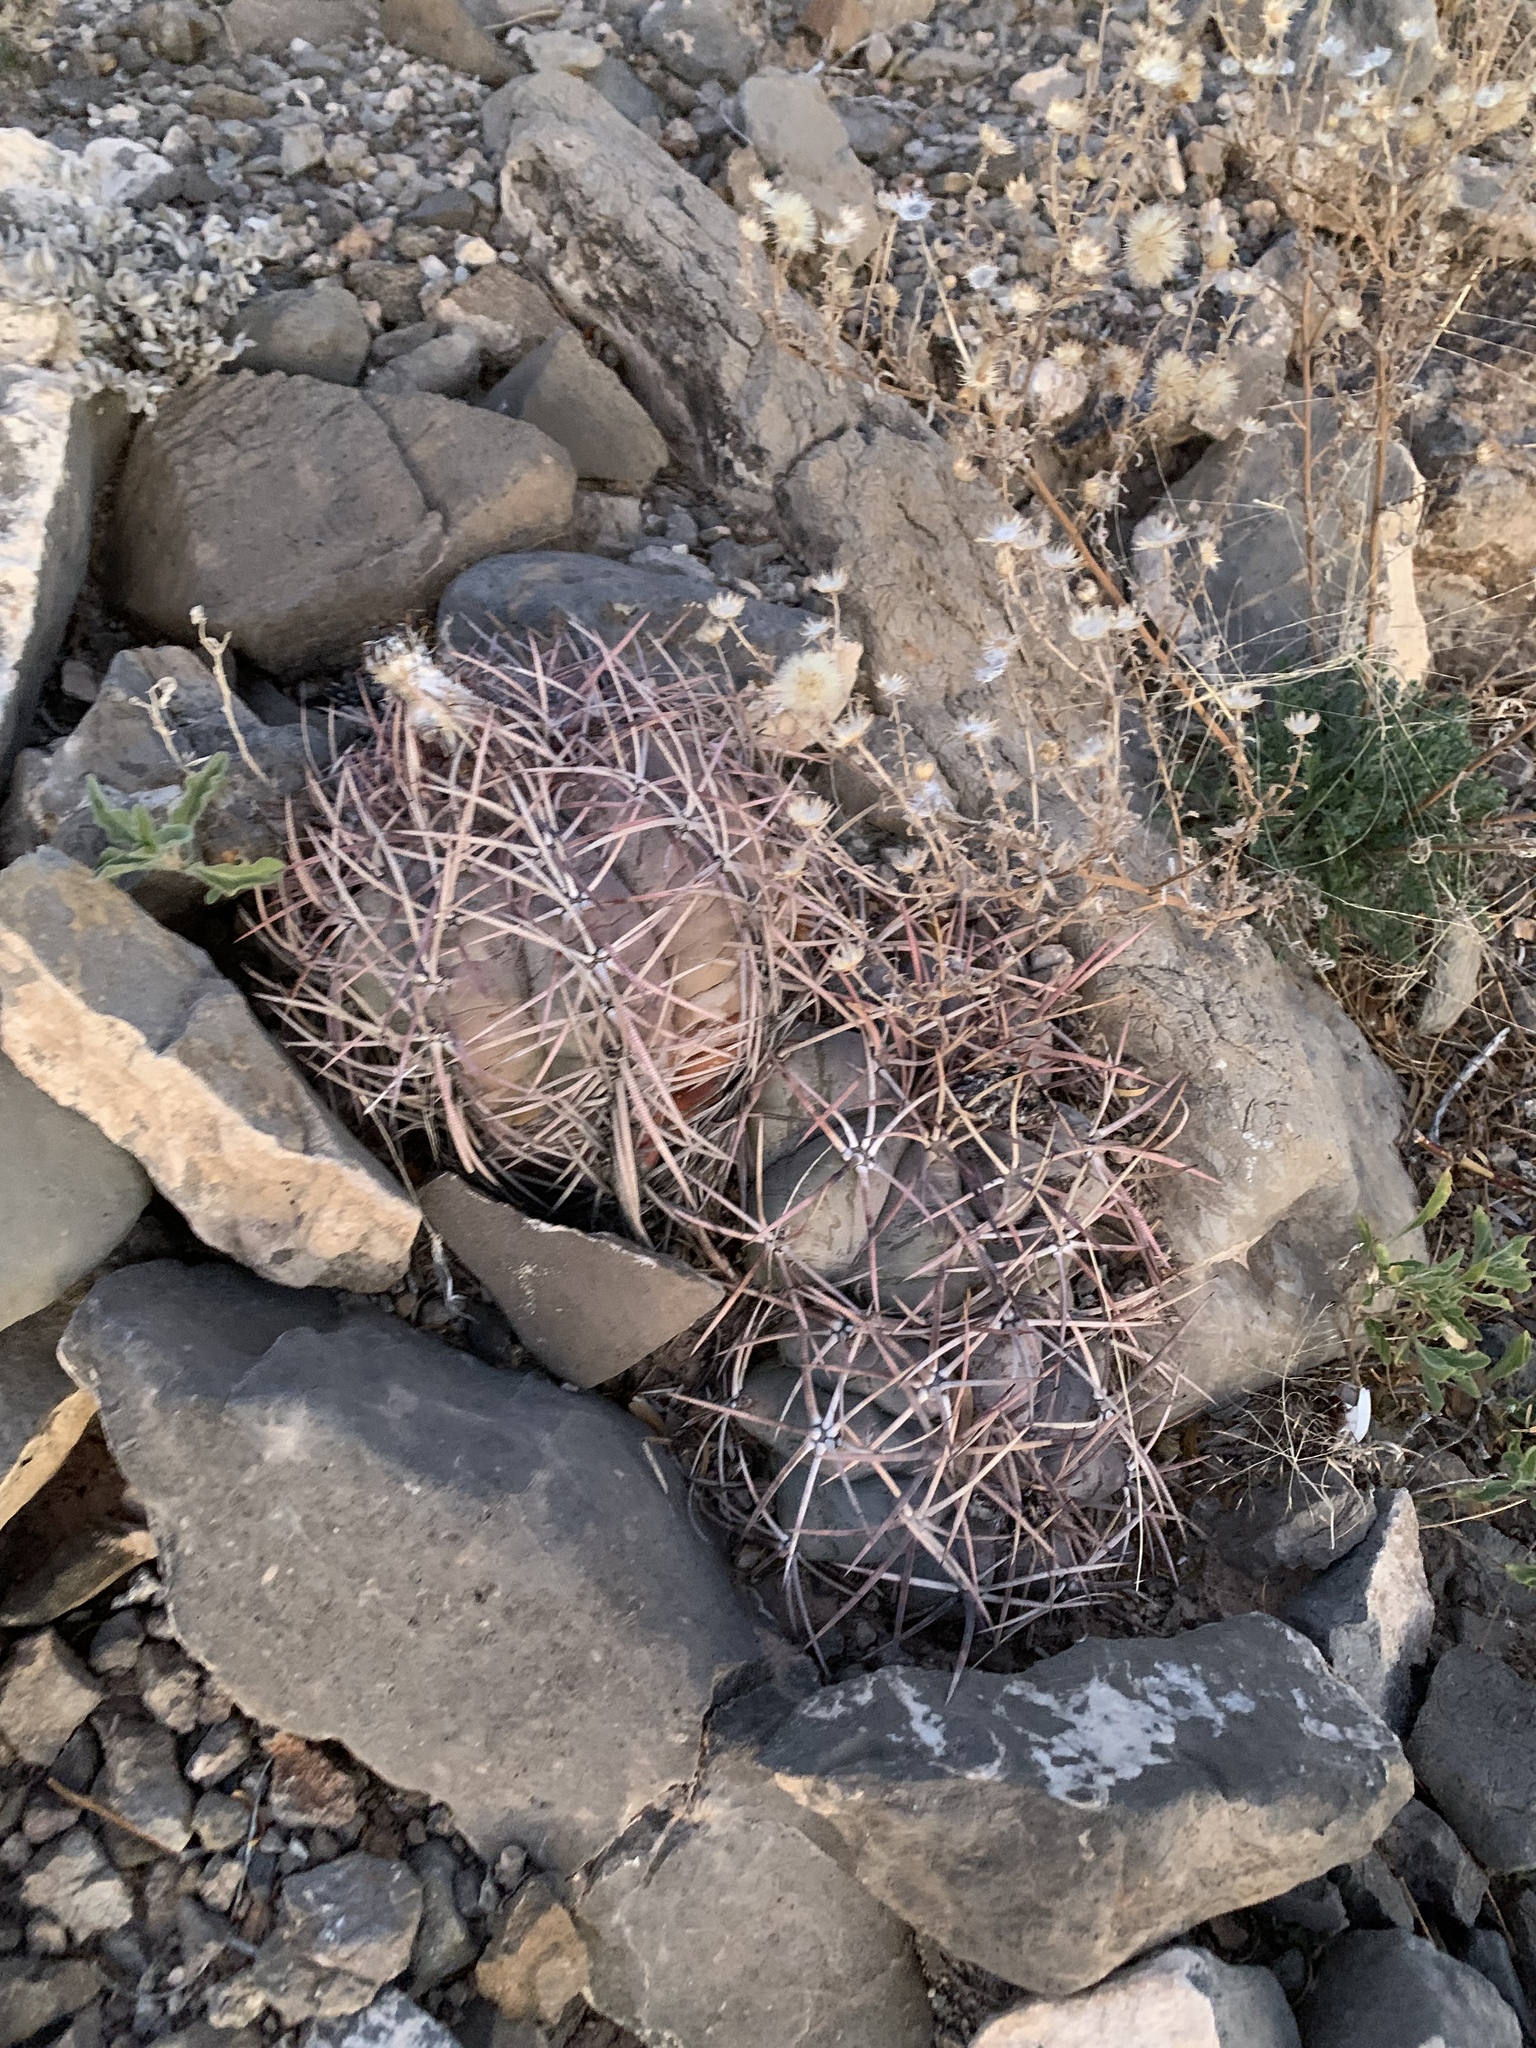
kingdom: Plantae
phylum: Tracheophyta
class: Magnoliopsida
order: Caryophyllales
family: Cactaceae
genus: Echinocactus
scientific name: Echinocactus horizonthalonius
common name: Devilshead
